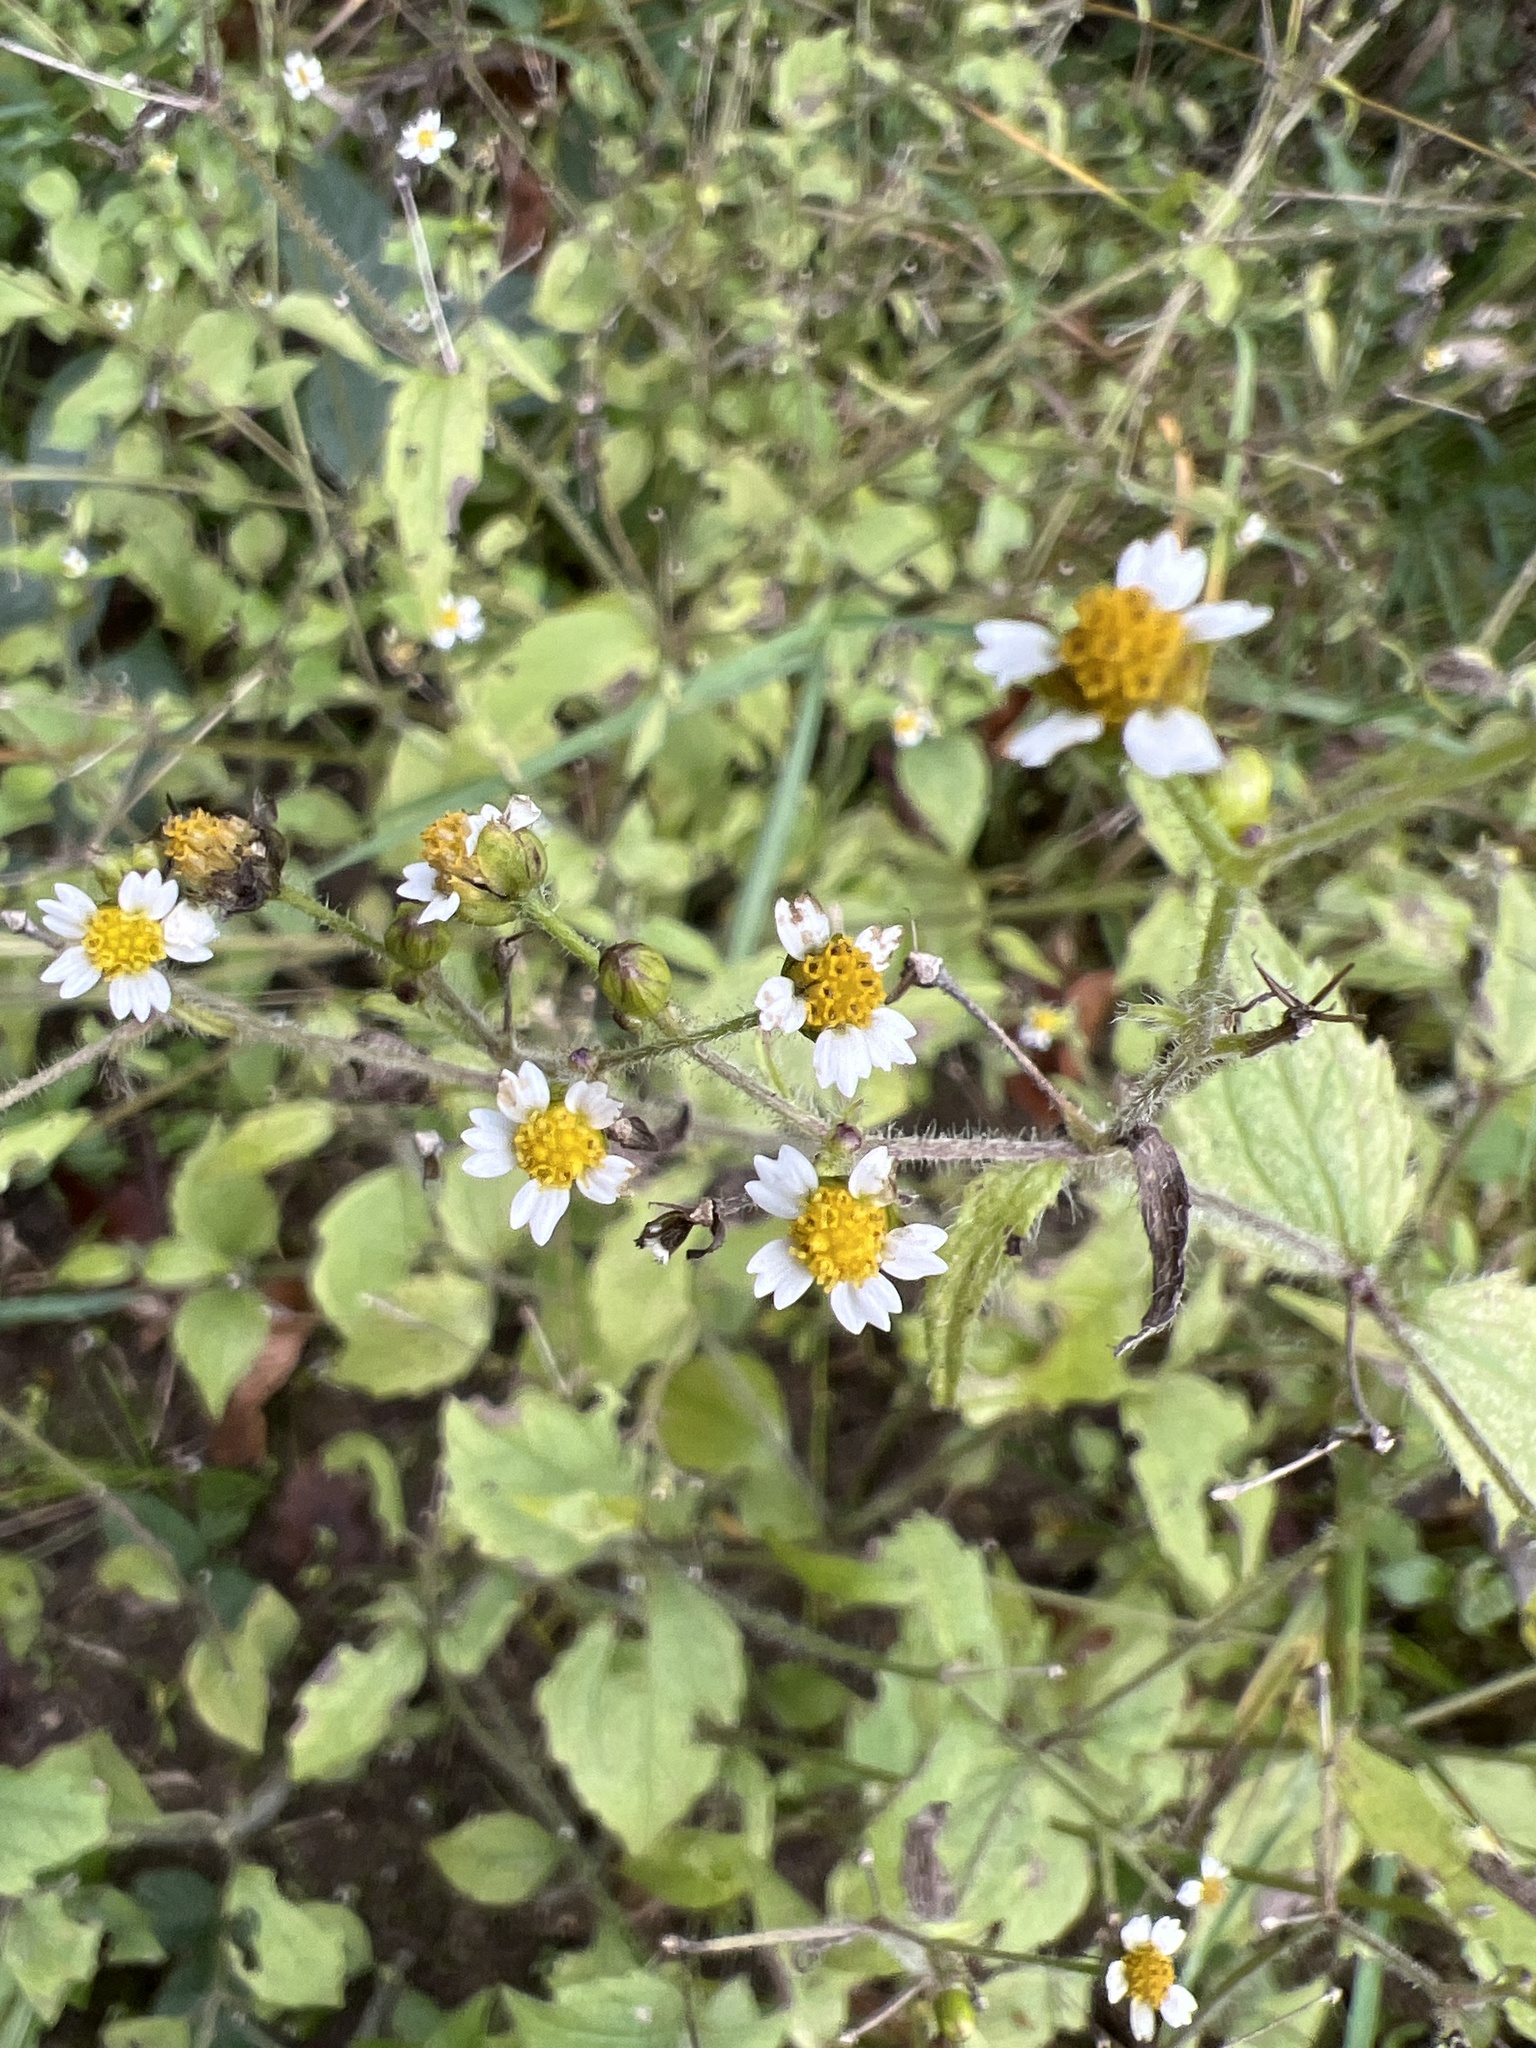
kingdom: Plantae
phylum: Tracheophyta
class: Magnoliopsida
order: Asterales
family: Asteraceae
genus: Galinsoga
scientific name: Galinsoga quadriradiata
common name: Shaggy soldier
